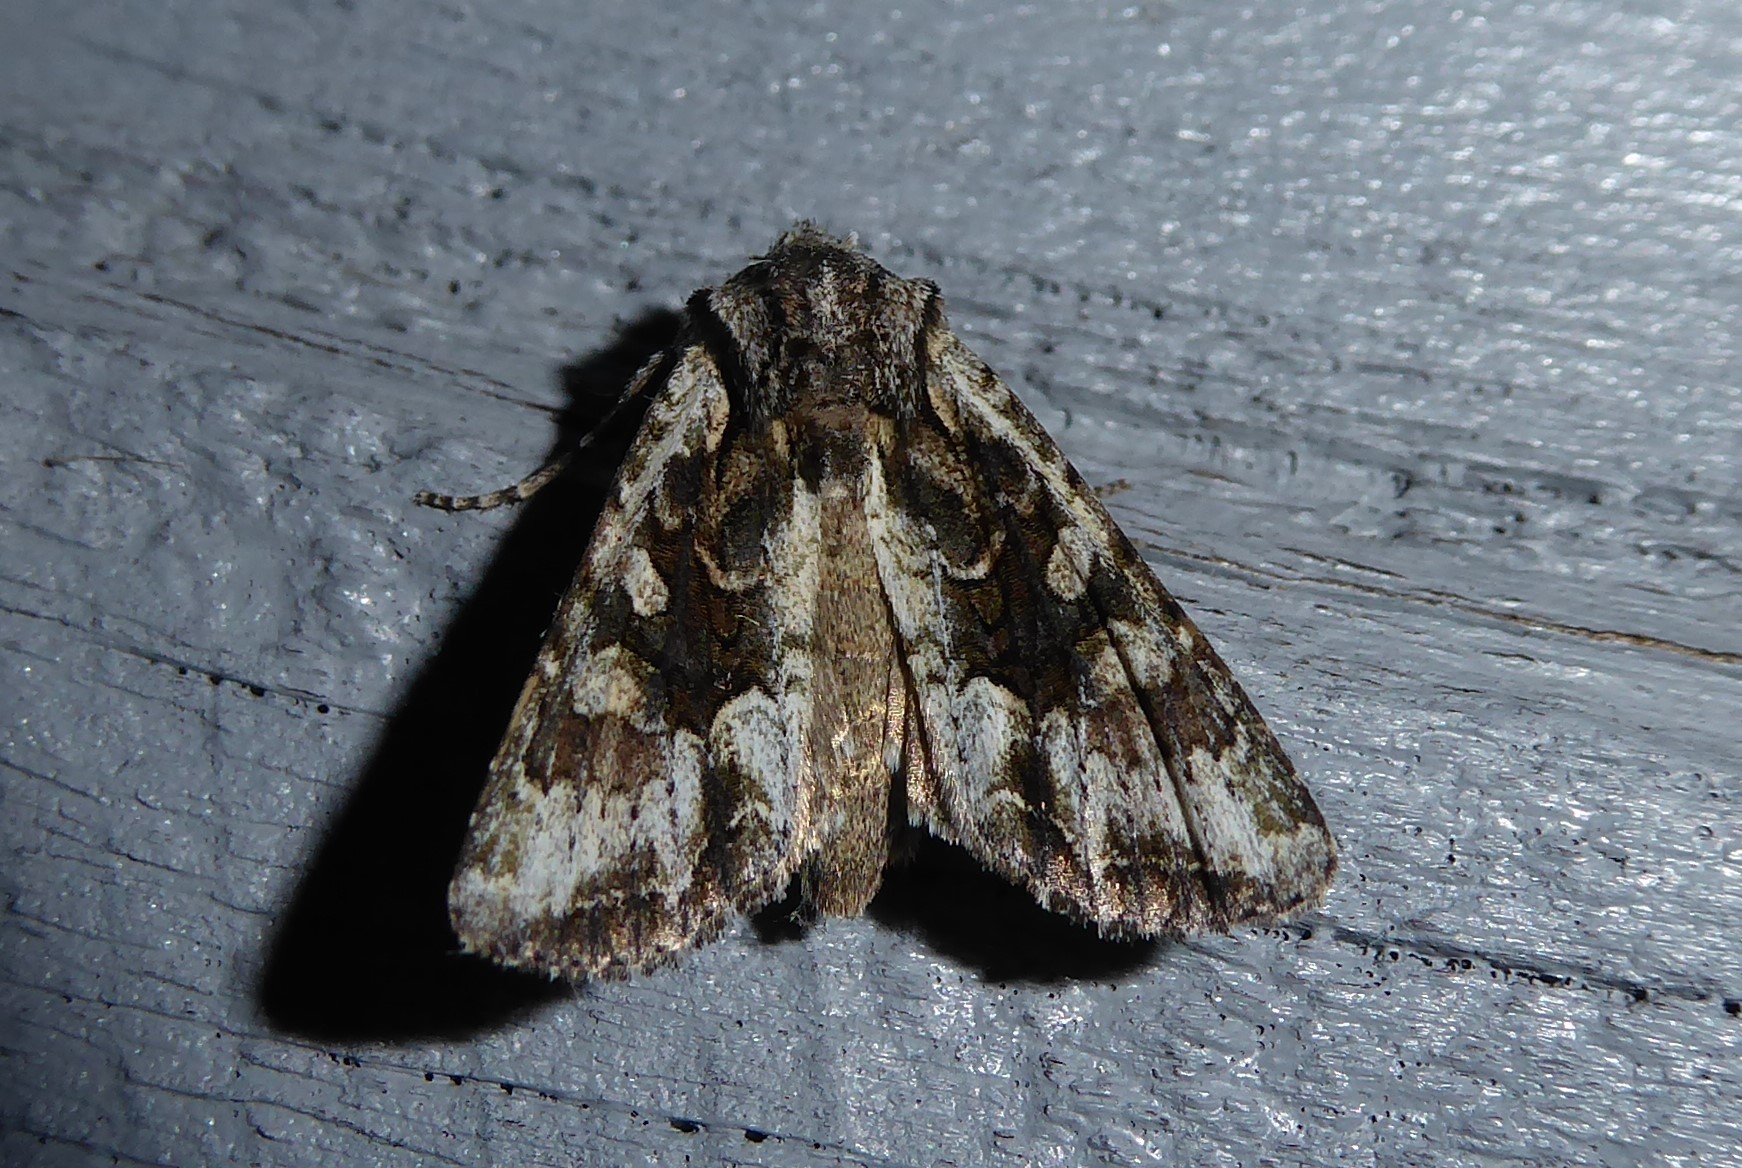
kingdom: Animalia
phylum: Arthropoda
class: Insecta
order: Lepidoptera
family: Noctuidae
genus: Ichneutica
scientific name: Ichneutica mutans
